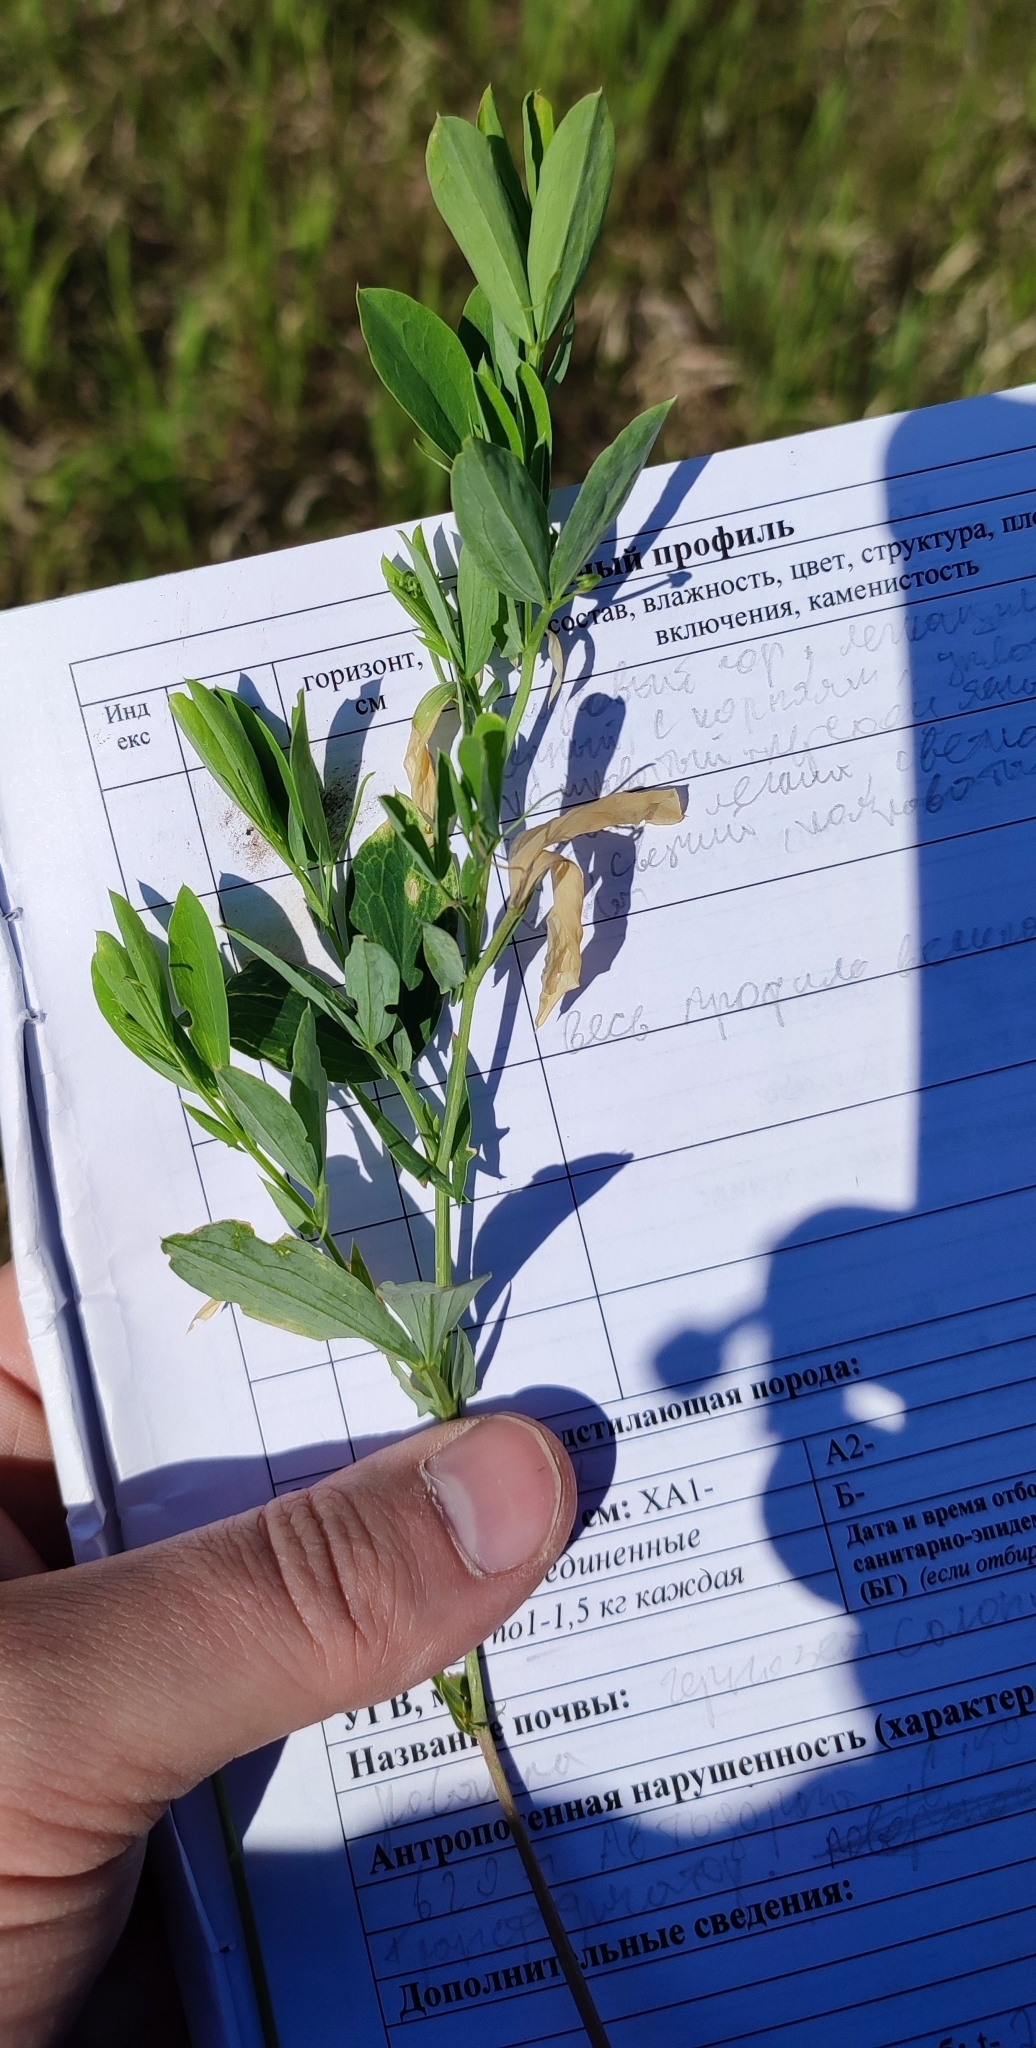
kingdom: Plantae
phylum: Tracheophyta
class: Magnoliopsida
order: Fabales
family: Fabaceae
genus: Lathyrus
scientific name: Lathyrus tuberosus
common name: Tuberous pea
